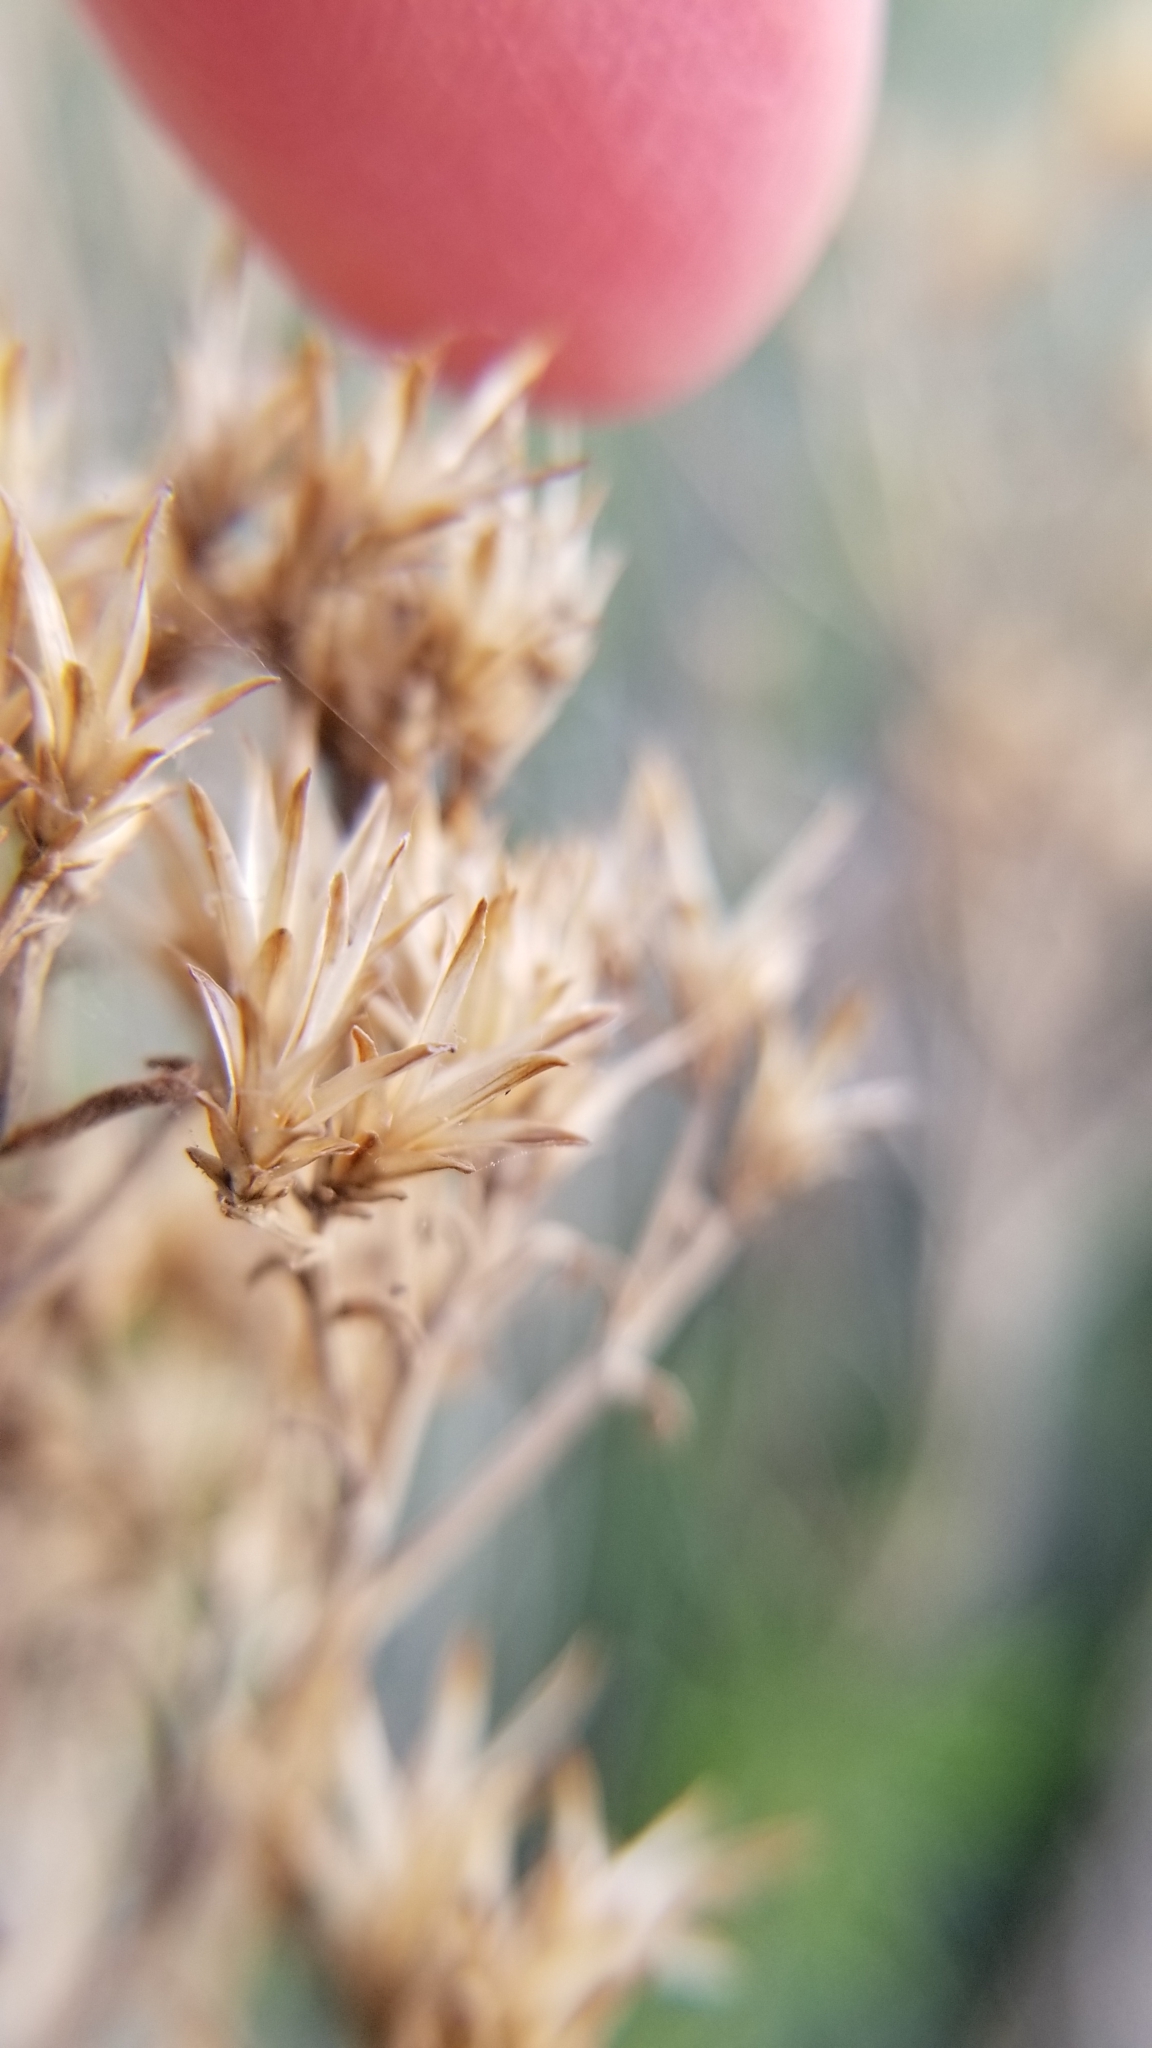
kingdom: Plantae
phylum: Tracheophyta
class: Magnoliopsida
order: Asterales
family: Asteraceae
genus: Ericameria
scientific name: Ericameria nauseosa
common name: Rubber rabbitbrush
